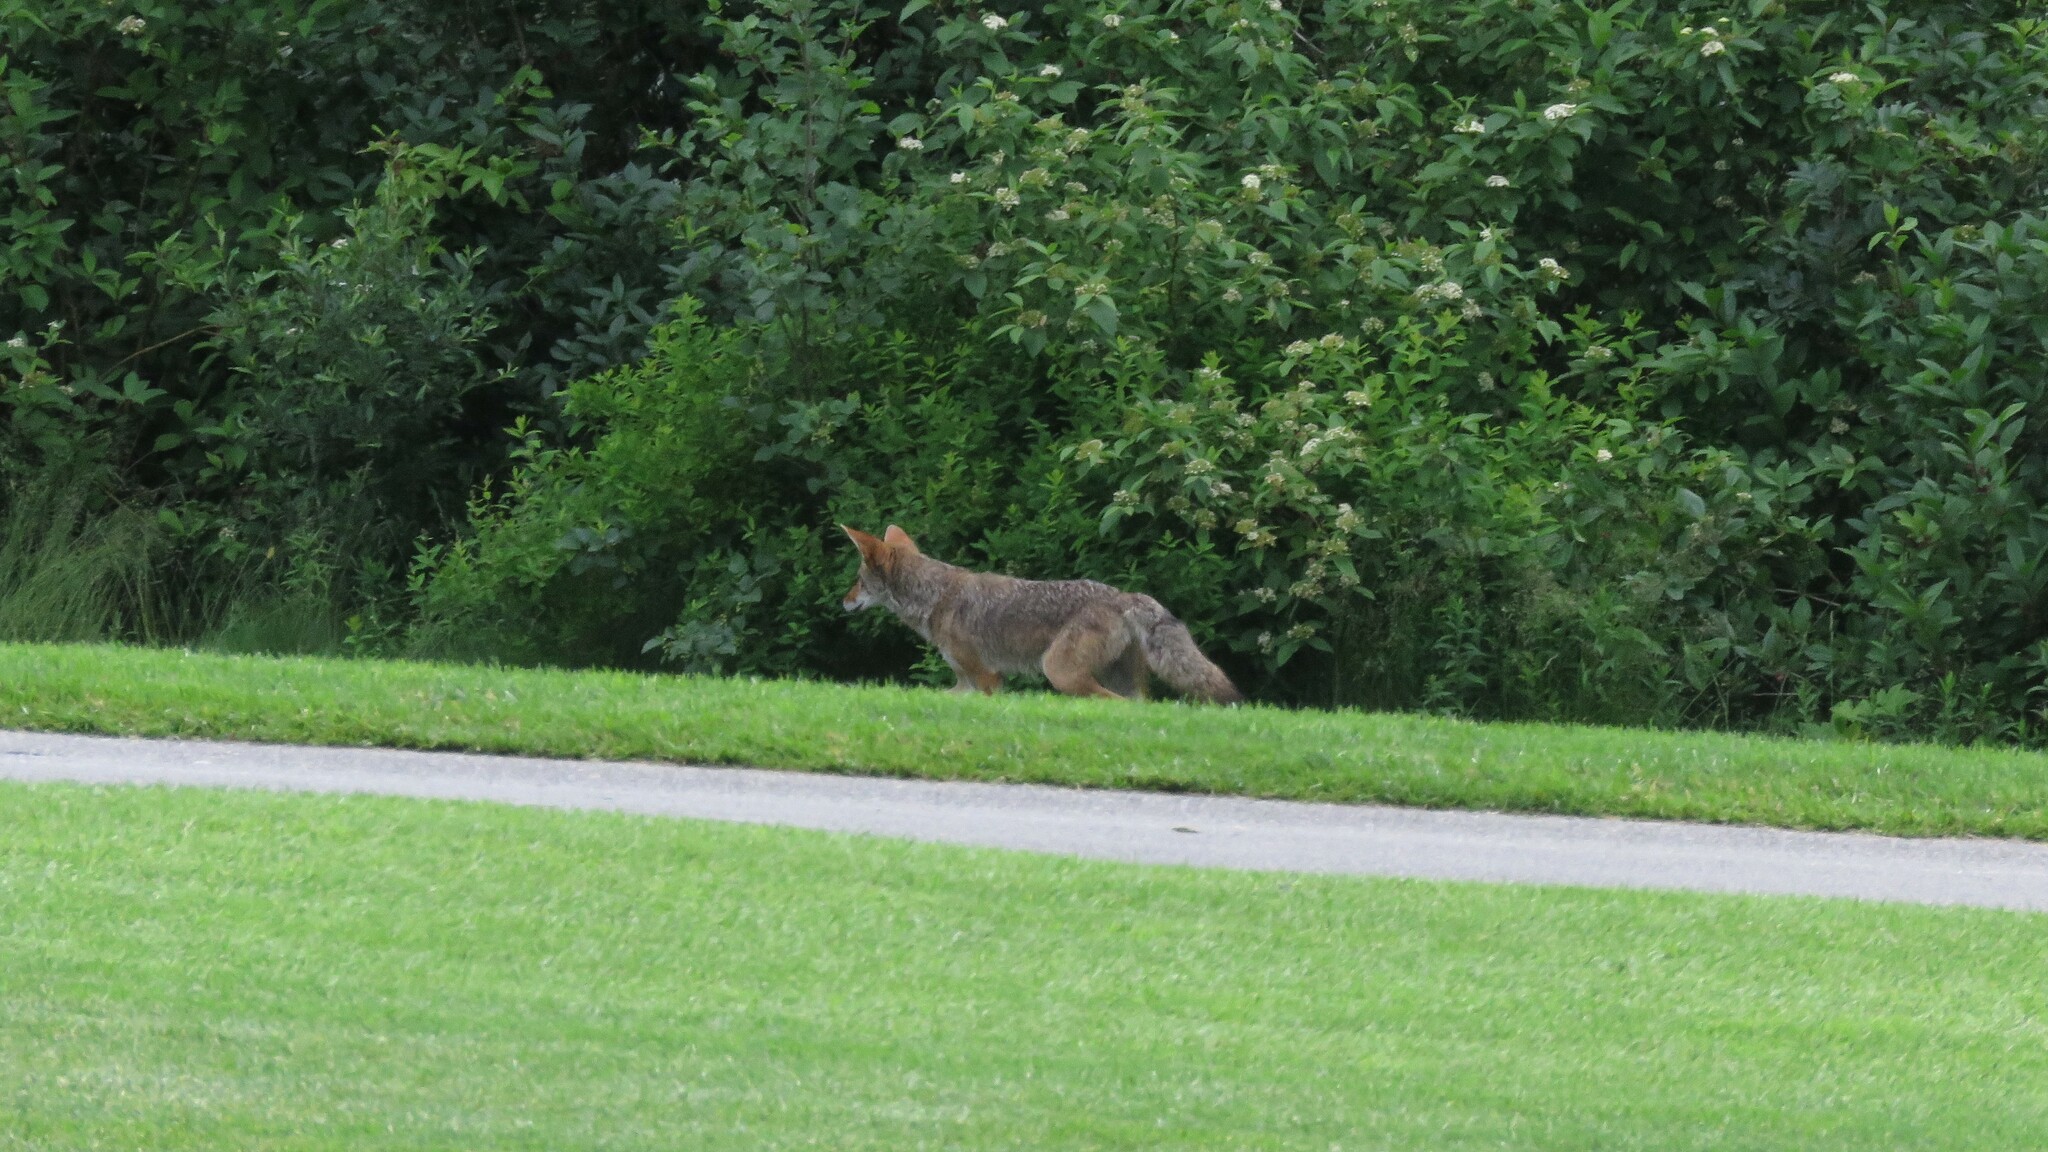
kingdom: Animalia
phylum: Chordata
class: Mammalia
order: Carnivora
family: Canidae
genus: Canis
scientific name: Canis latrans
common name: Coyote
